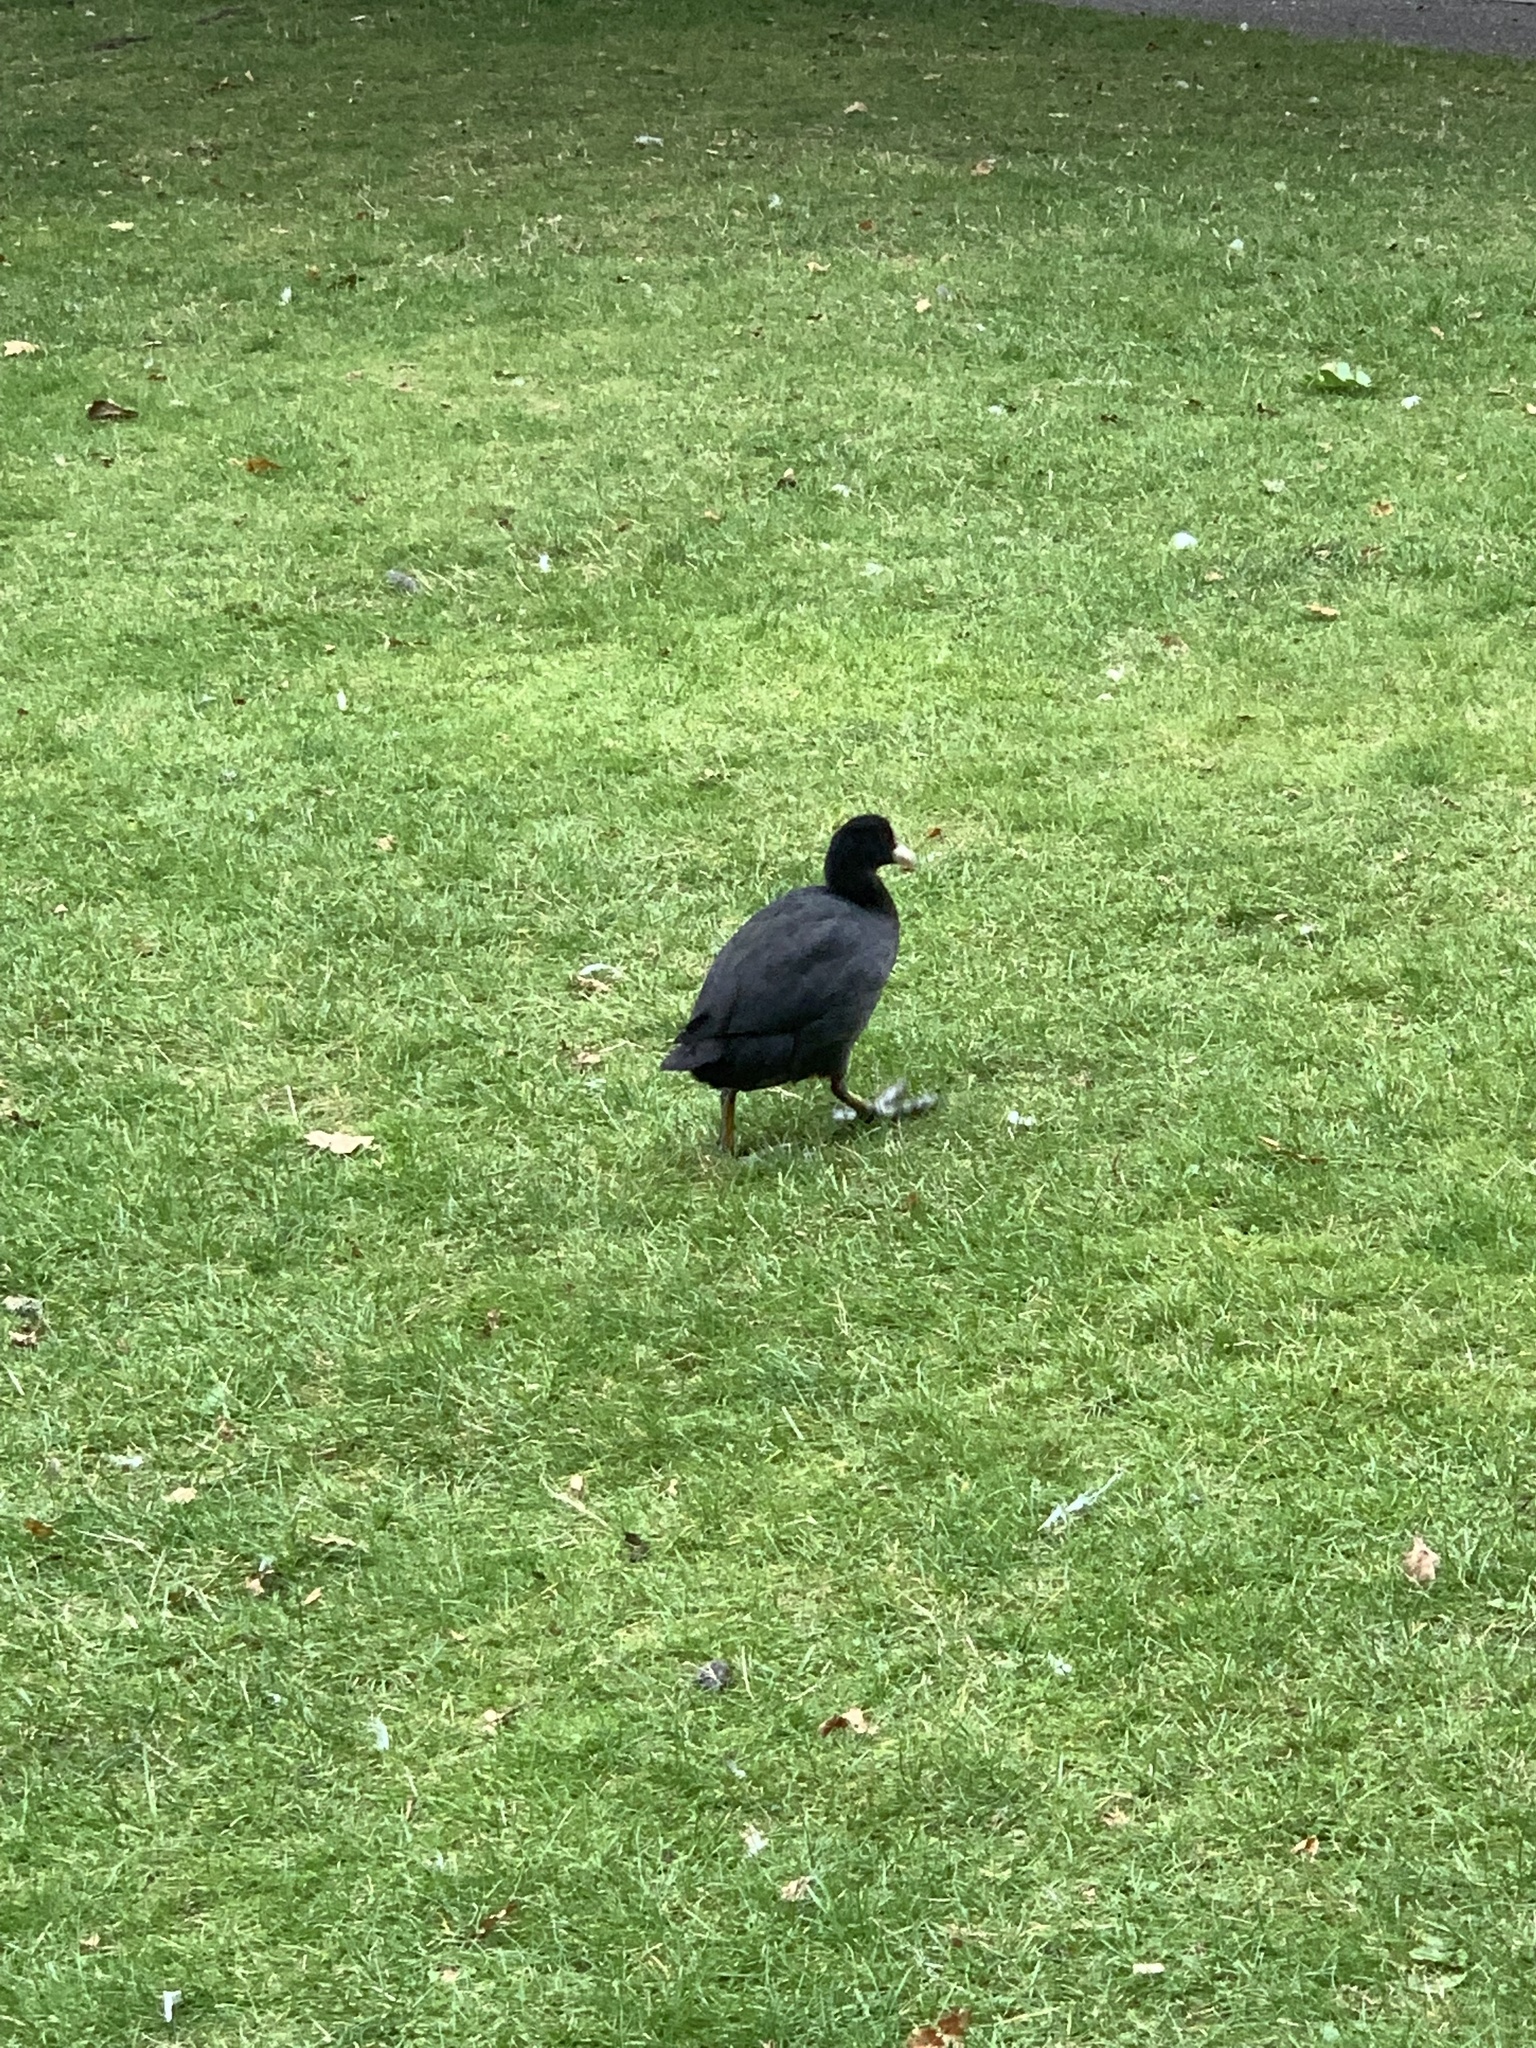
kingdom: Animalia
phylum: Chordata
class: Aves
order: Gruiformes
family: Rallidae
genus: Fulica
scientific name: Fulica atra
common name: Eurasian coot
